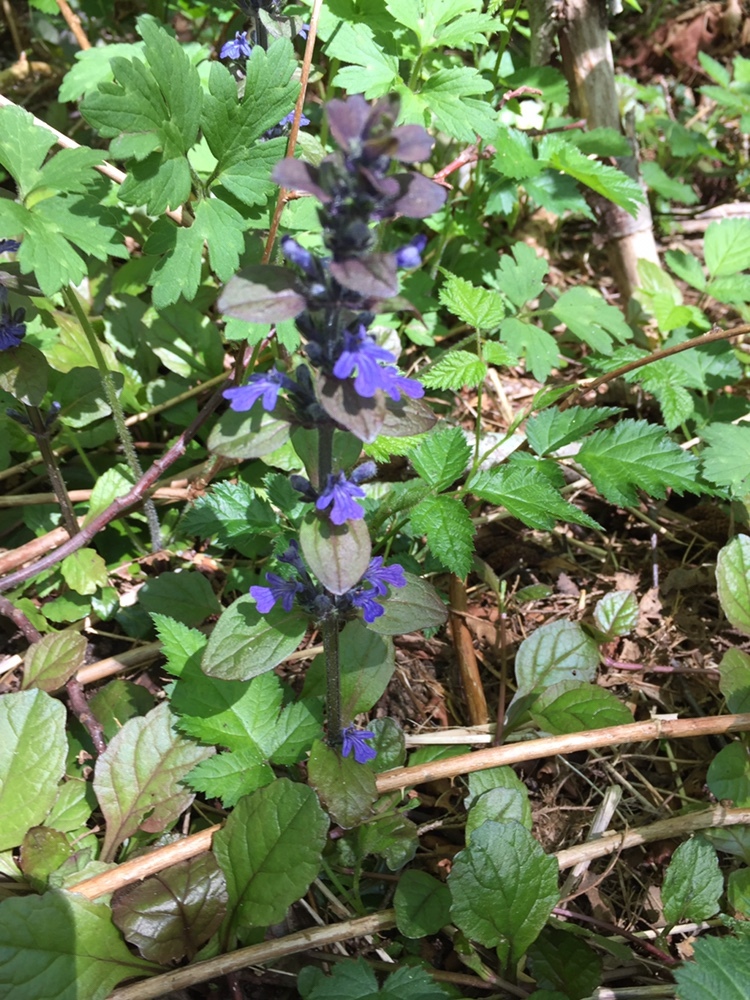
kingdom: Plantae
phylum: Tracheophyta
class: Magnoliopsida
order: Lamiales
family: Lamiaceae
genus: Ajuga
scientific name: Ajuga reptans
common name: Bugle
